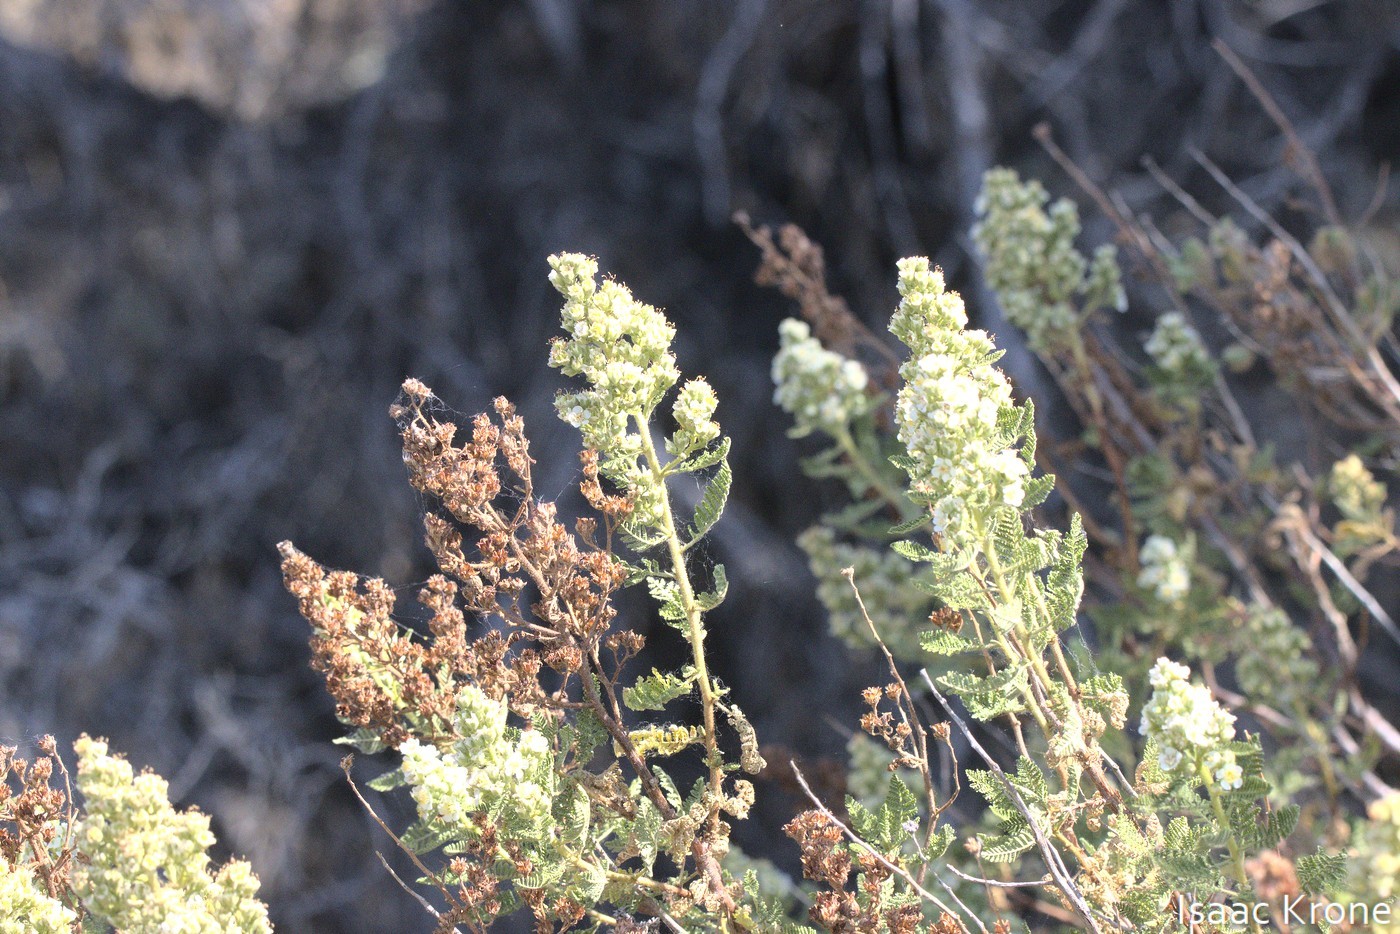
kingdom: Plantae
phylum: Tracheophyta
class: Magnoliopsida
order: Rosales
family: Rosaceae
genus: Chamaebatiaria
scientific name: Chamaebatiaria millefolium
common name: Fernbush
